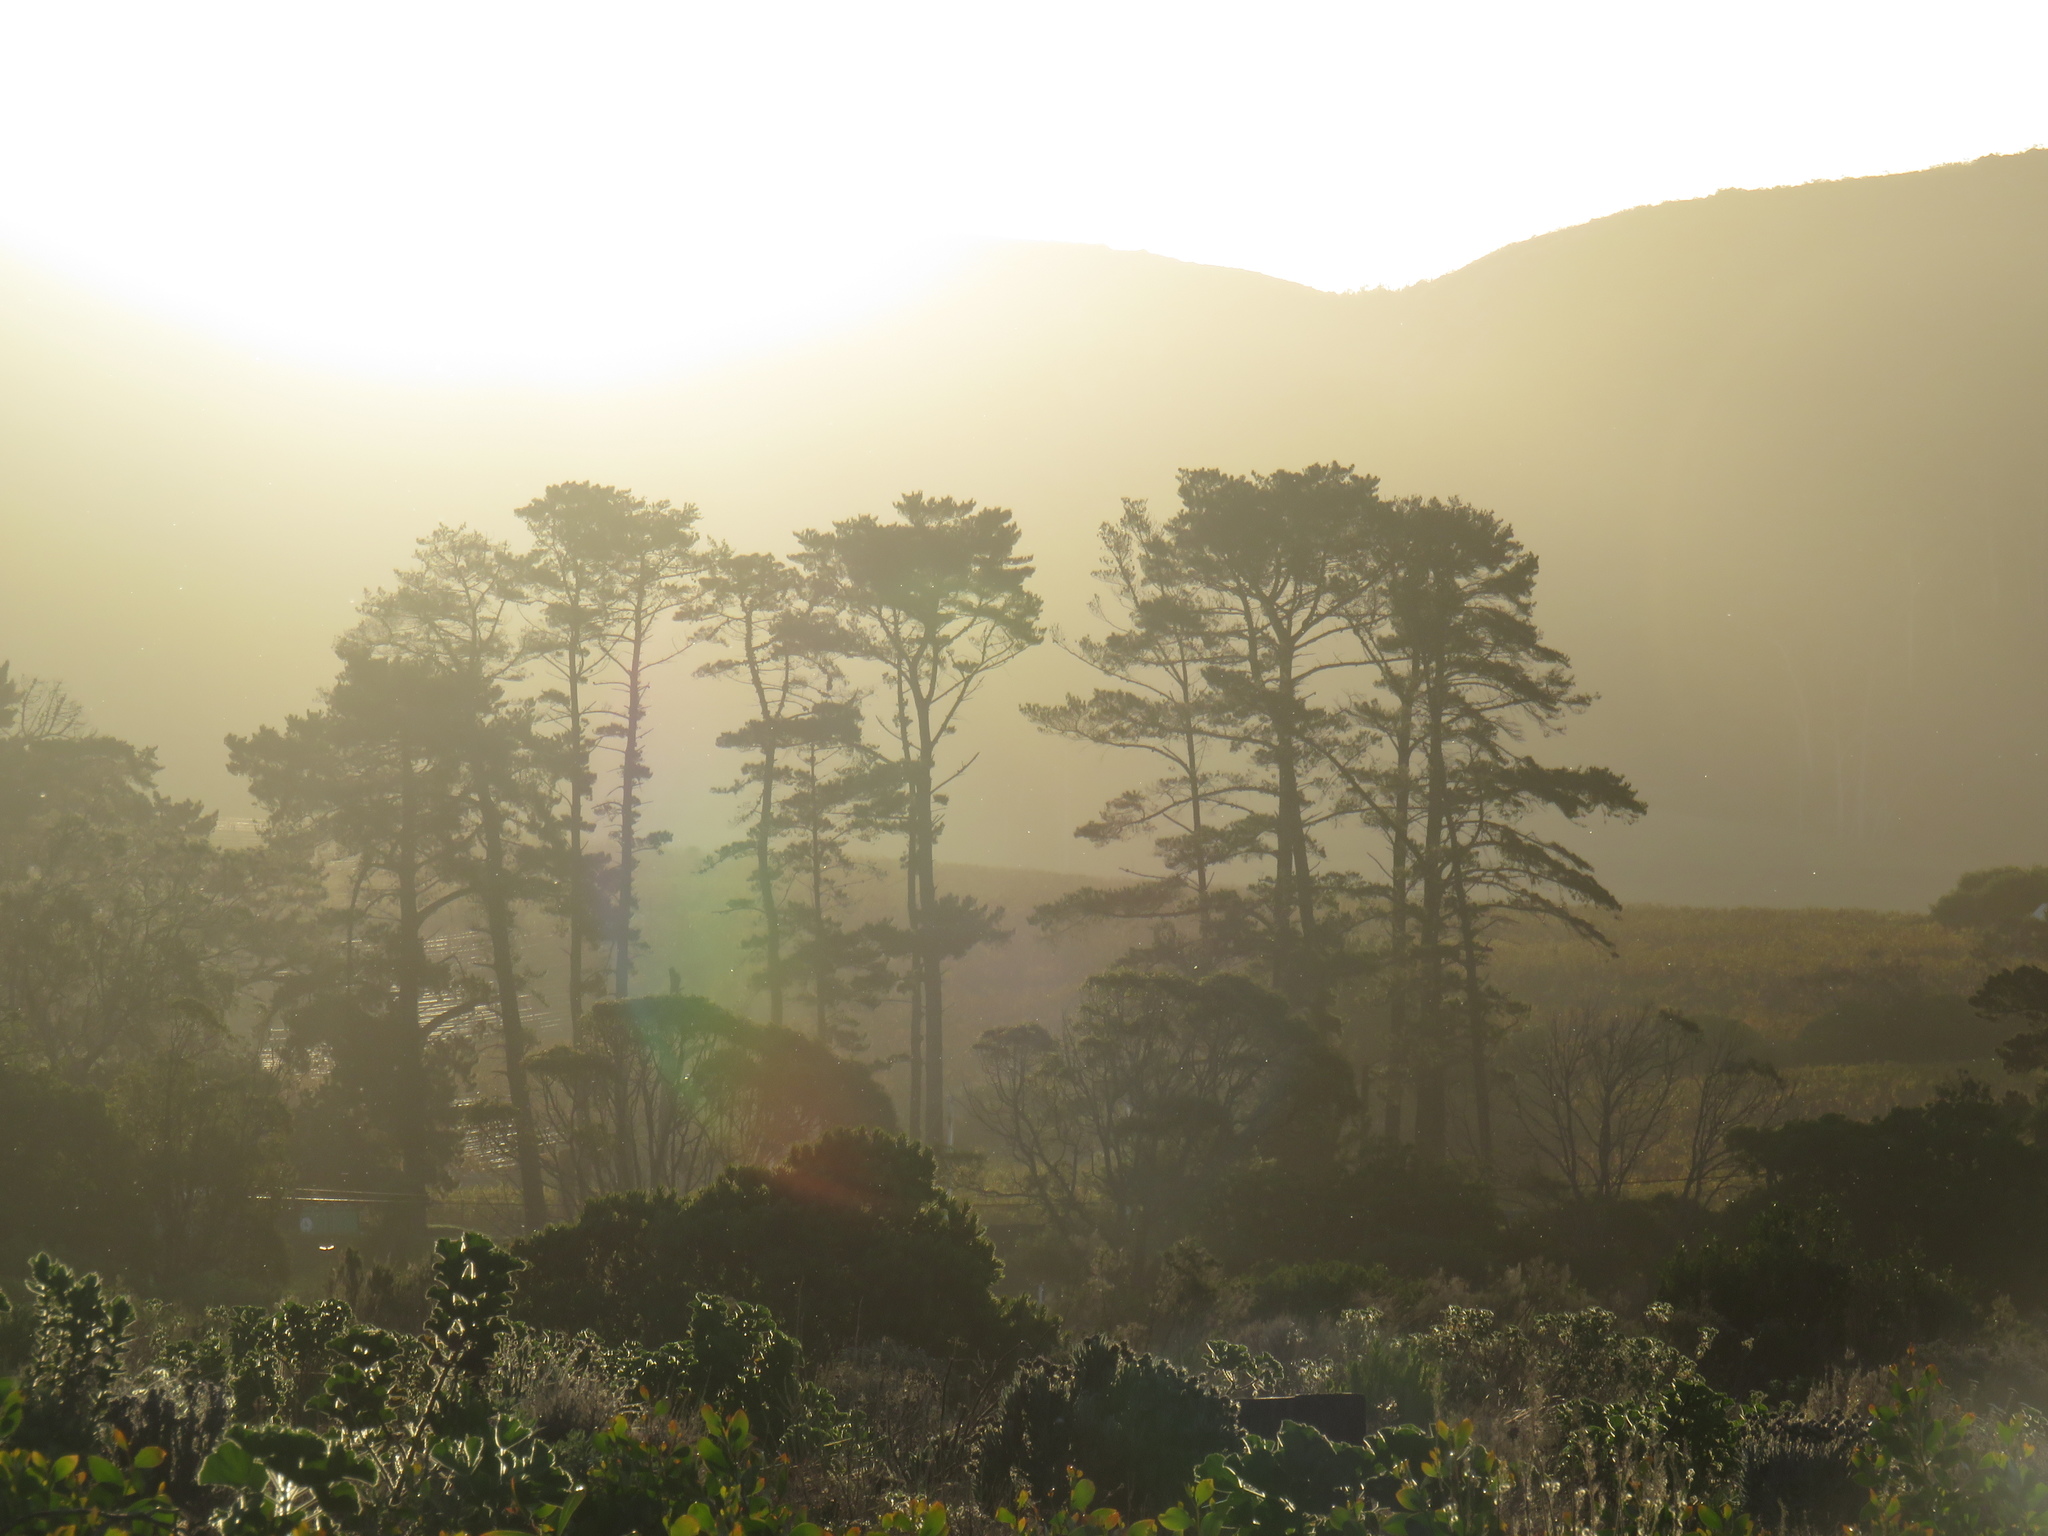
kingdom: Plantae
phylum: Tracheophyta
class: Pinopsida
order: Pinales
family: Pinaceae
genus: Pinus
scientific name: Pinus radiata
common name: Monterey pine
